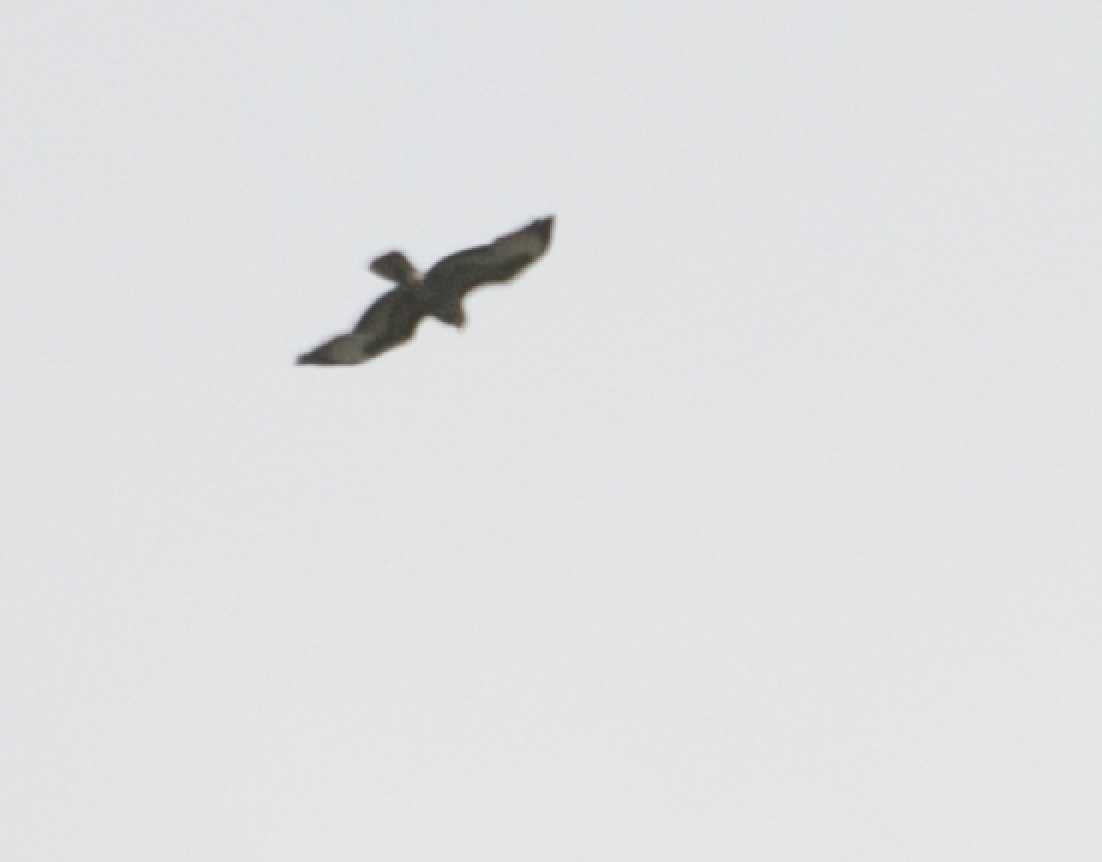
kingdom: Animalia
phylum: Chordata
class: Aves
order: Accipitriformes
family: Accipitridae
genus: Buteo
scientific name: Buteo buteo
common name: Common buzzard
